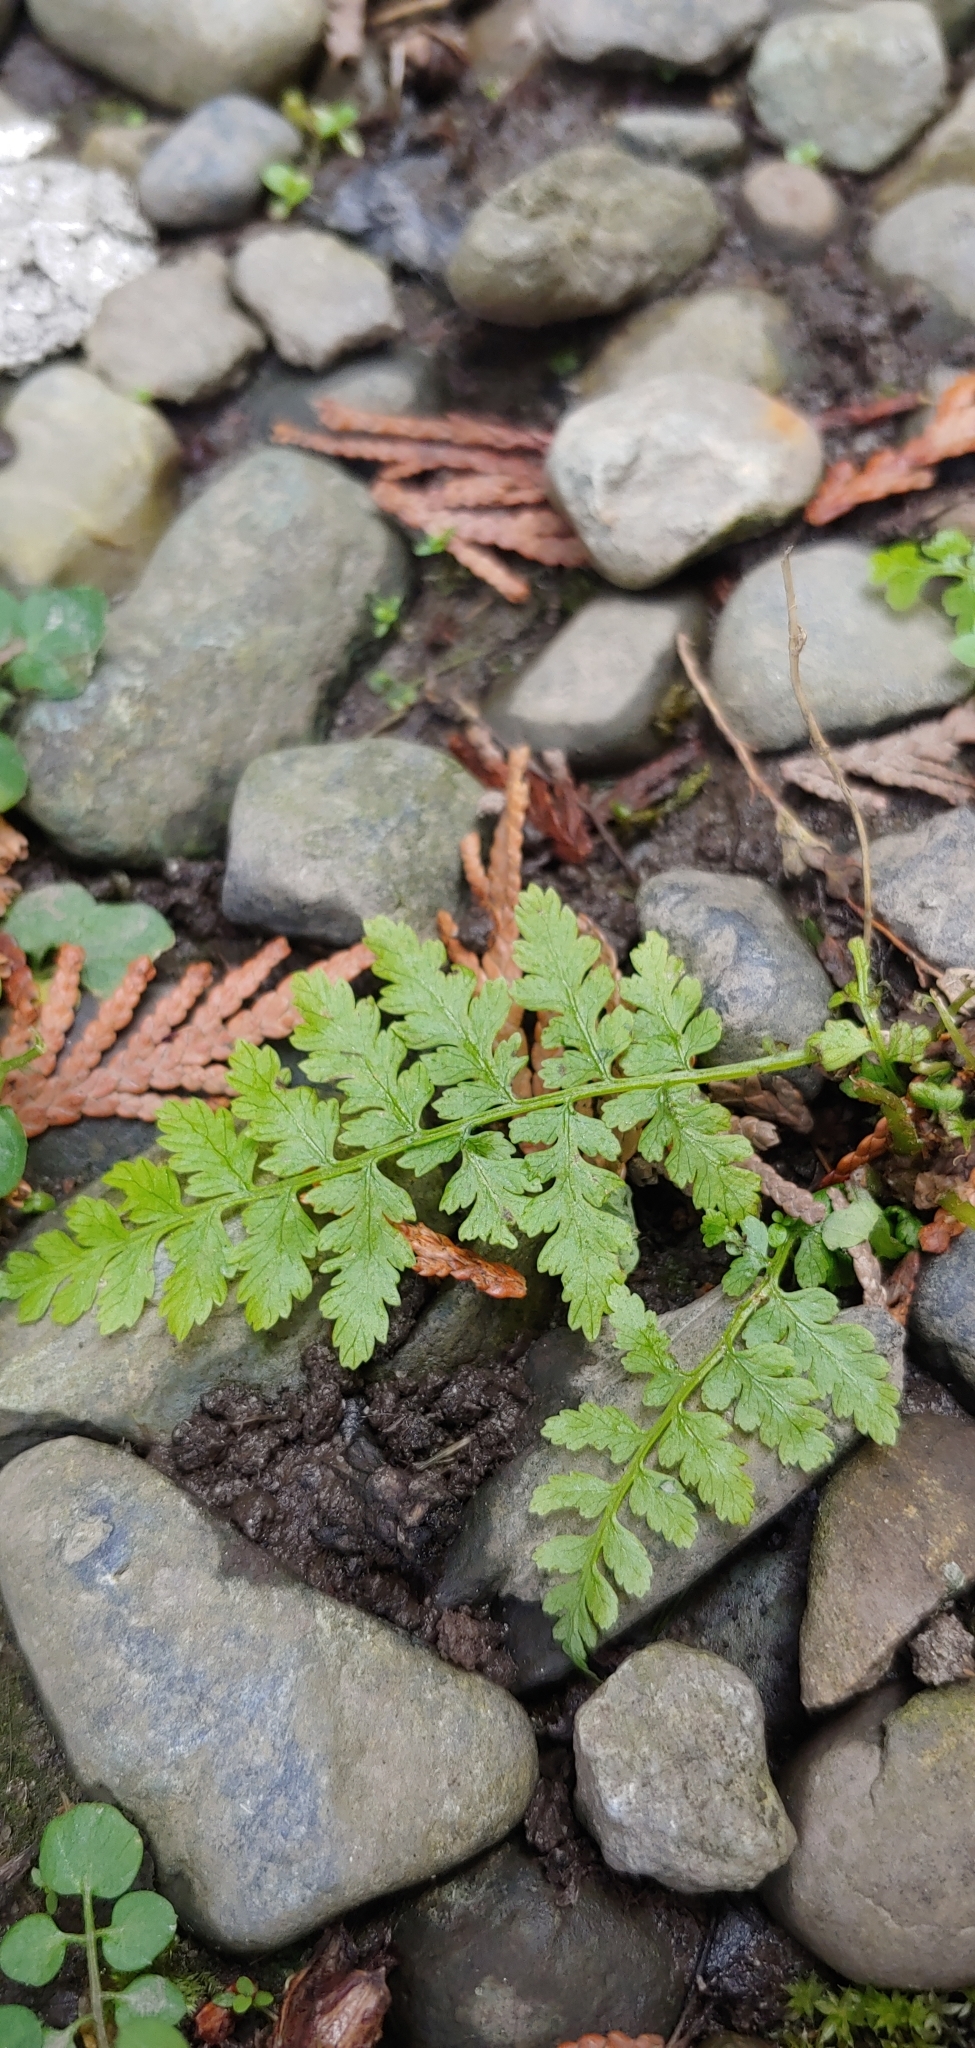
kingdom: Plantae
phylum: Tracheophyta
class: Polypodiopsida
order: Polypodiales
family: Athyriaceae
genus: Athyrium
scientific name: Athyrium filix-femina
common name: Lady fern
